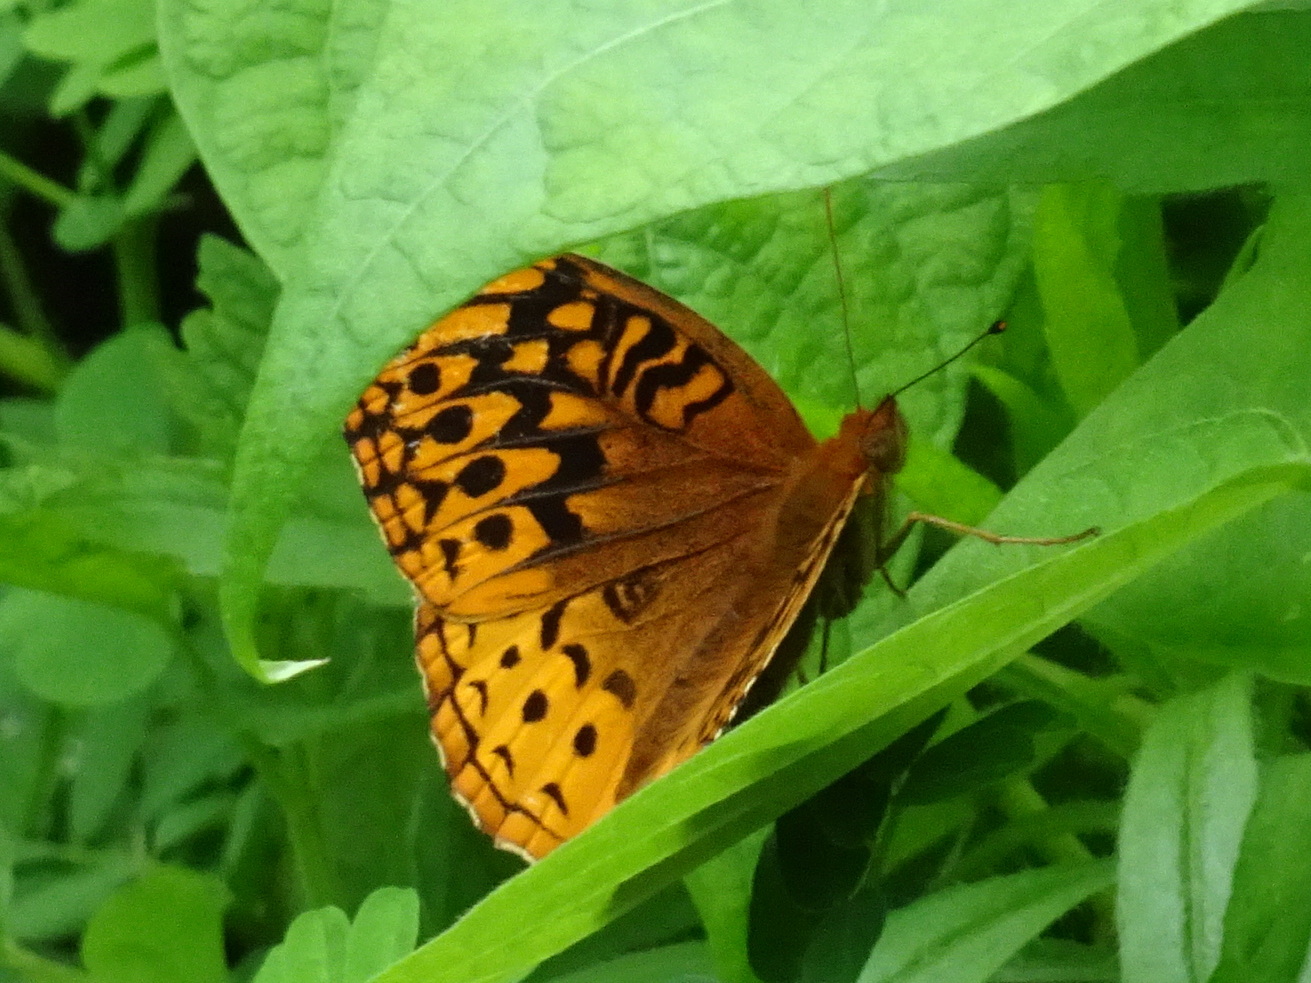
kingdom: Animalia
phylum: Arthropoda
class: Insecta
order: Lepidoptera
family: Nymphalidae
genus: Speyeria
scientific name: Speyeria cybele
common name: Great spangled fritillary
